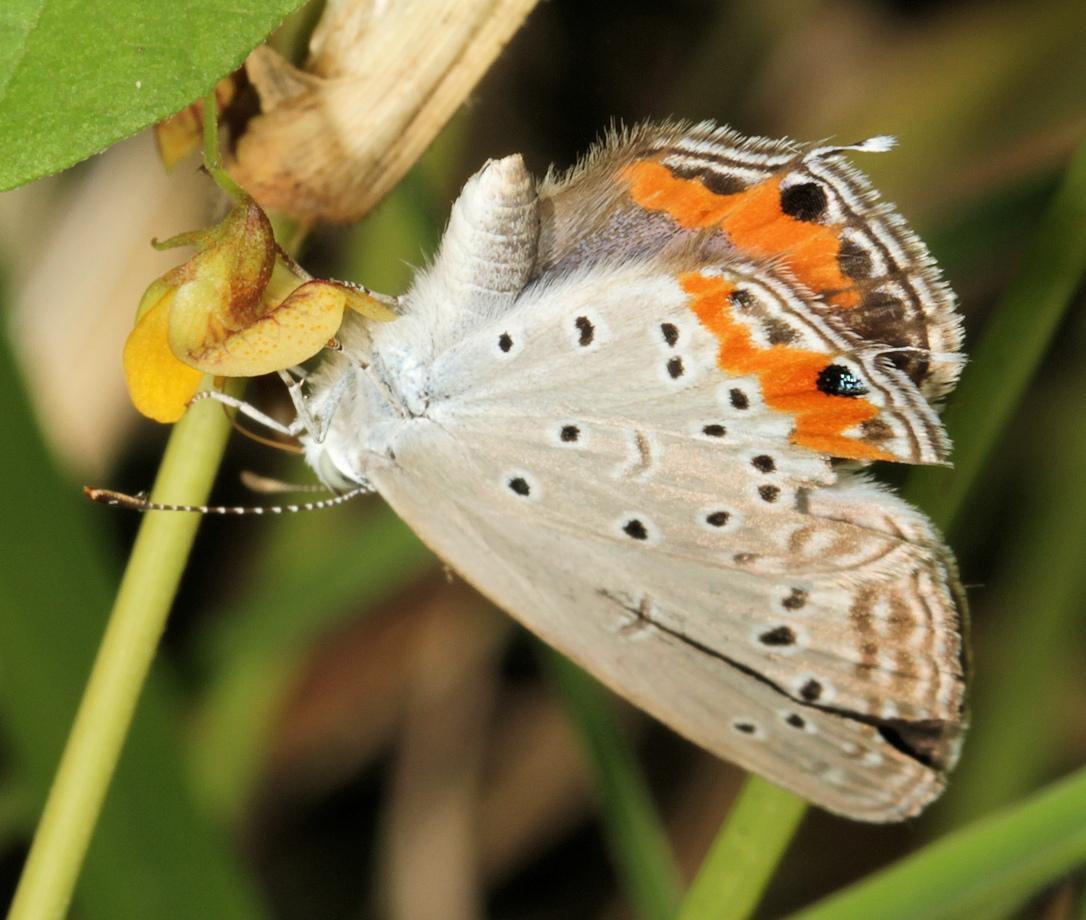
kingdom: Animalia
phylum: Arthropoda
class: Insecta
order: Lepidoptera
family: Lycaenidae
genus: Cupidopsis
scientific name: Cupidopsis jobates
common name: Tailed meadow blue
